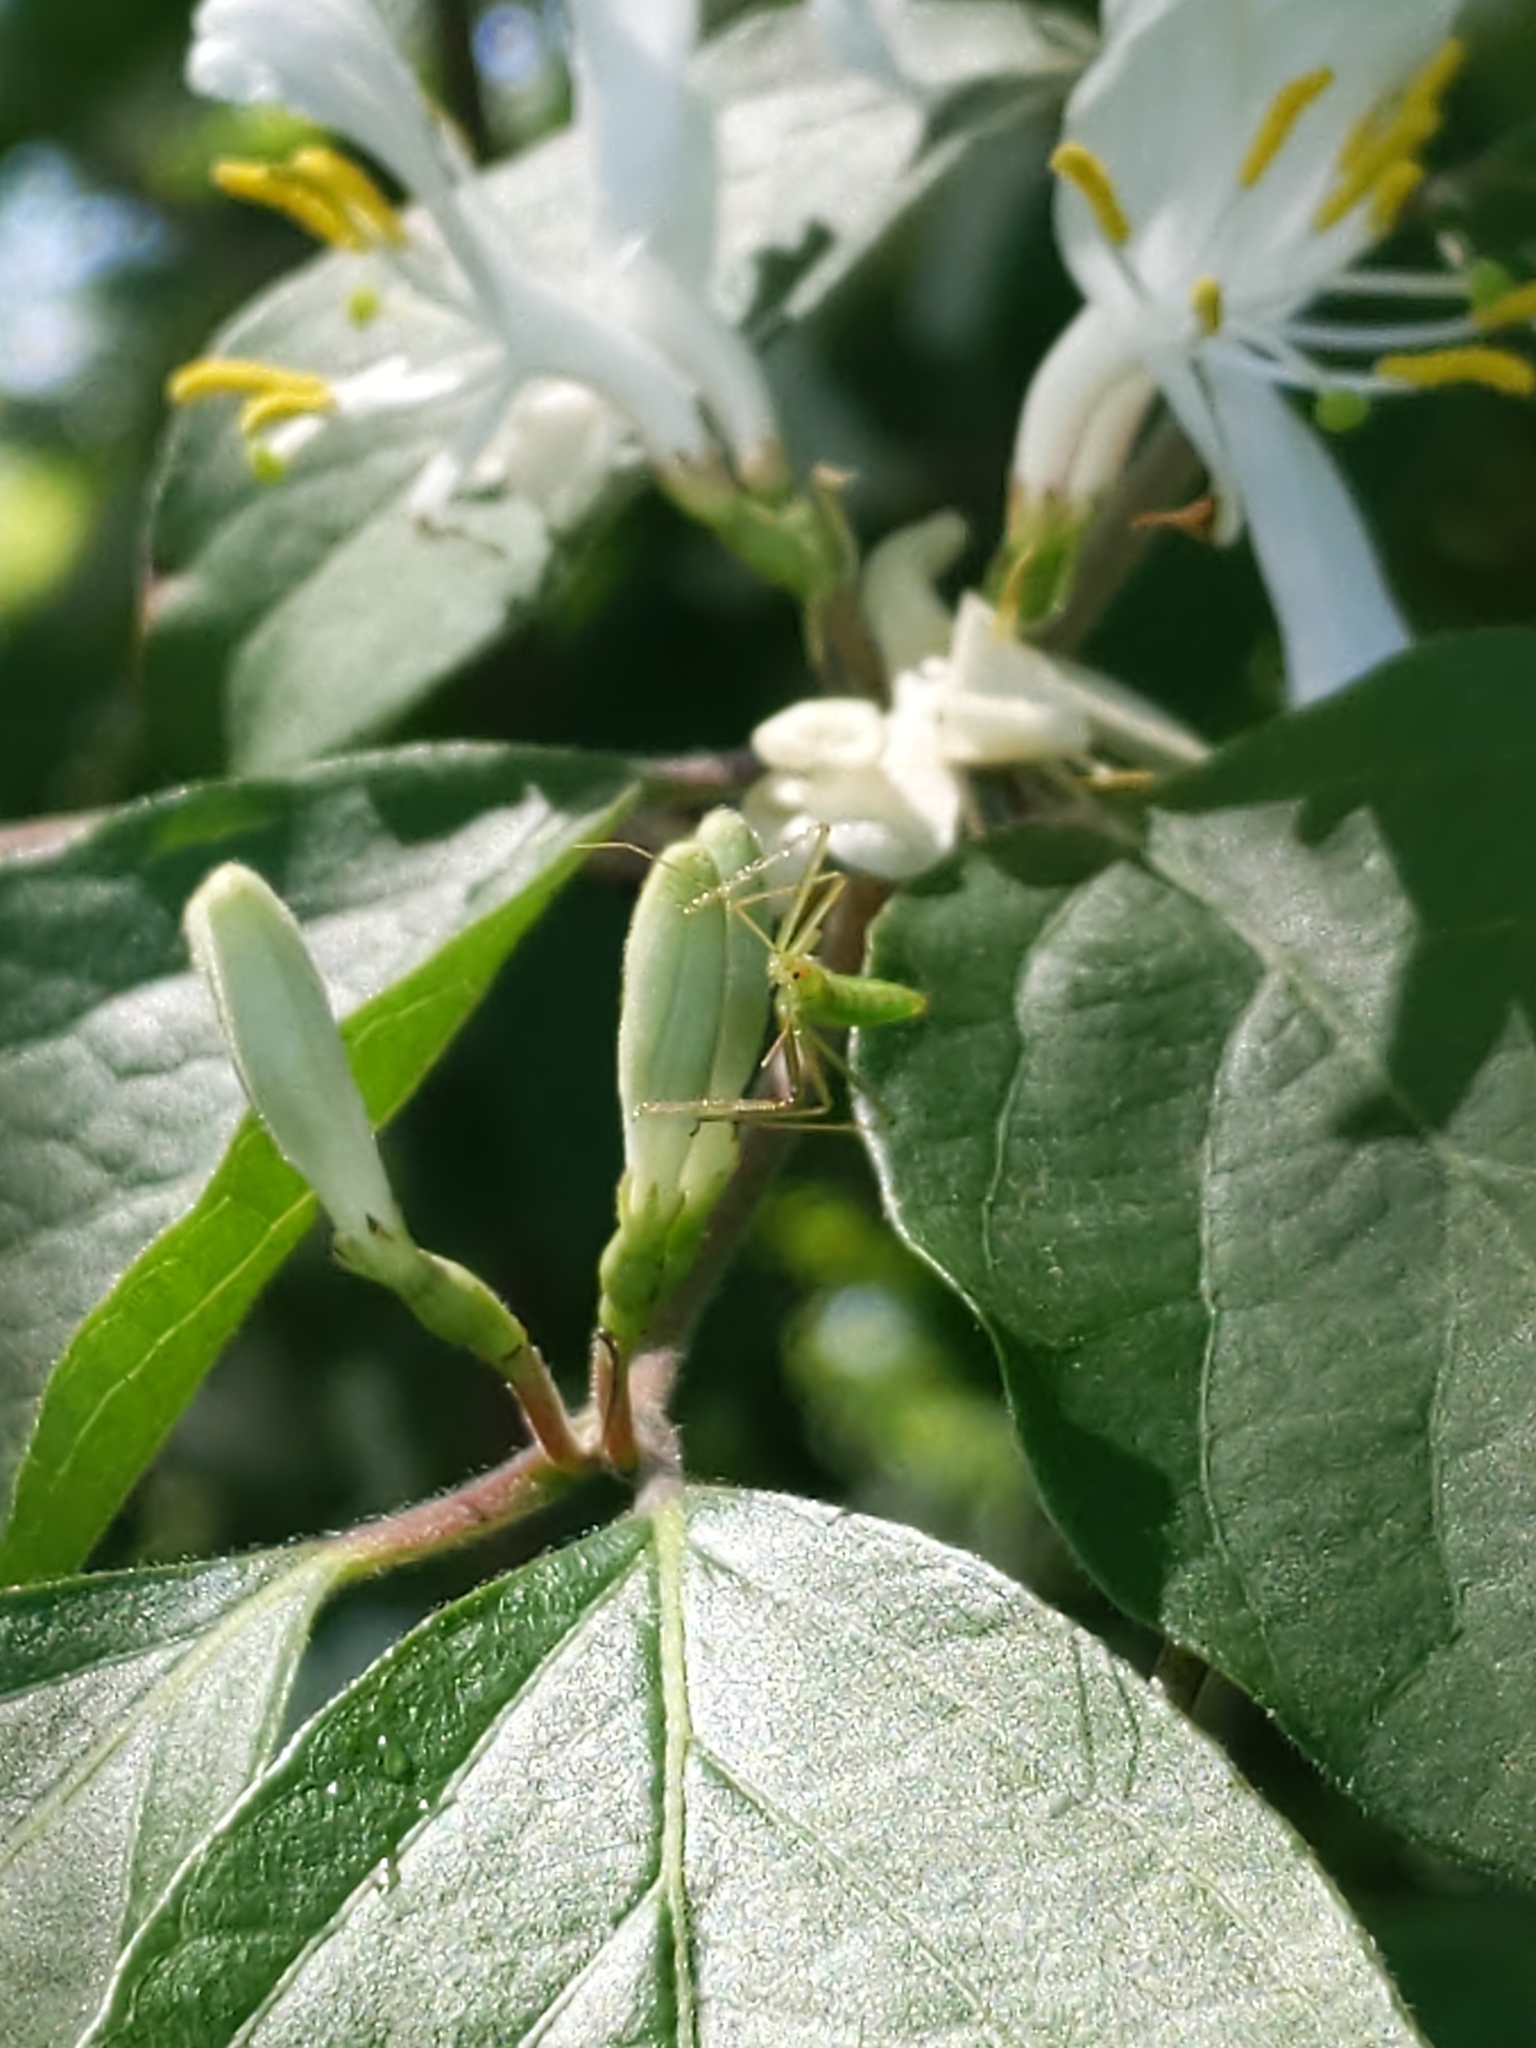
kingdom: Animalia
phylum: Arthropoda
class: Insecta
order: Hemiptera
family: Reduviidae
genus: Zelus
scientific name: Zelus luridus
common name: Pale green assassin bug
